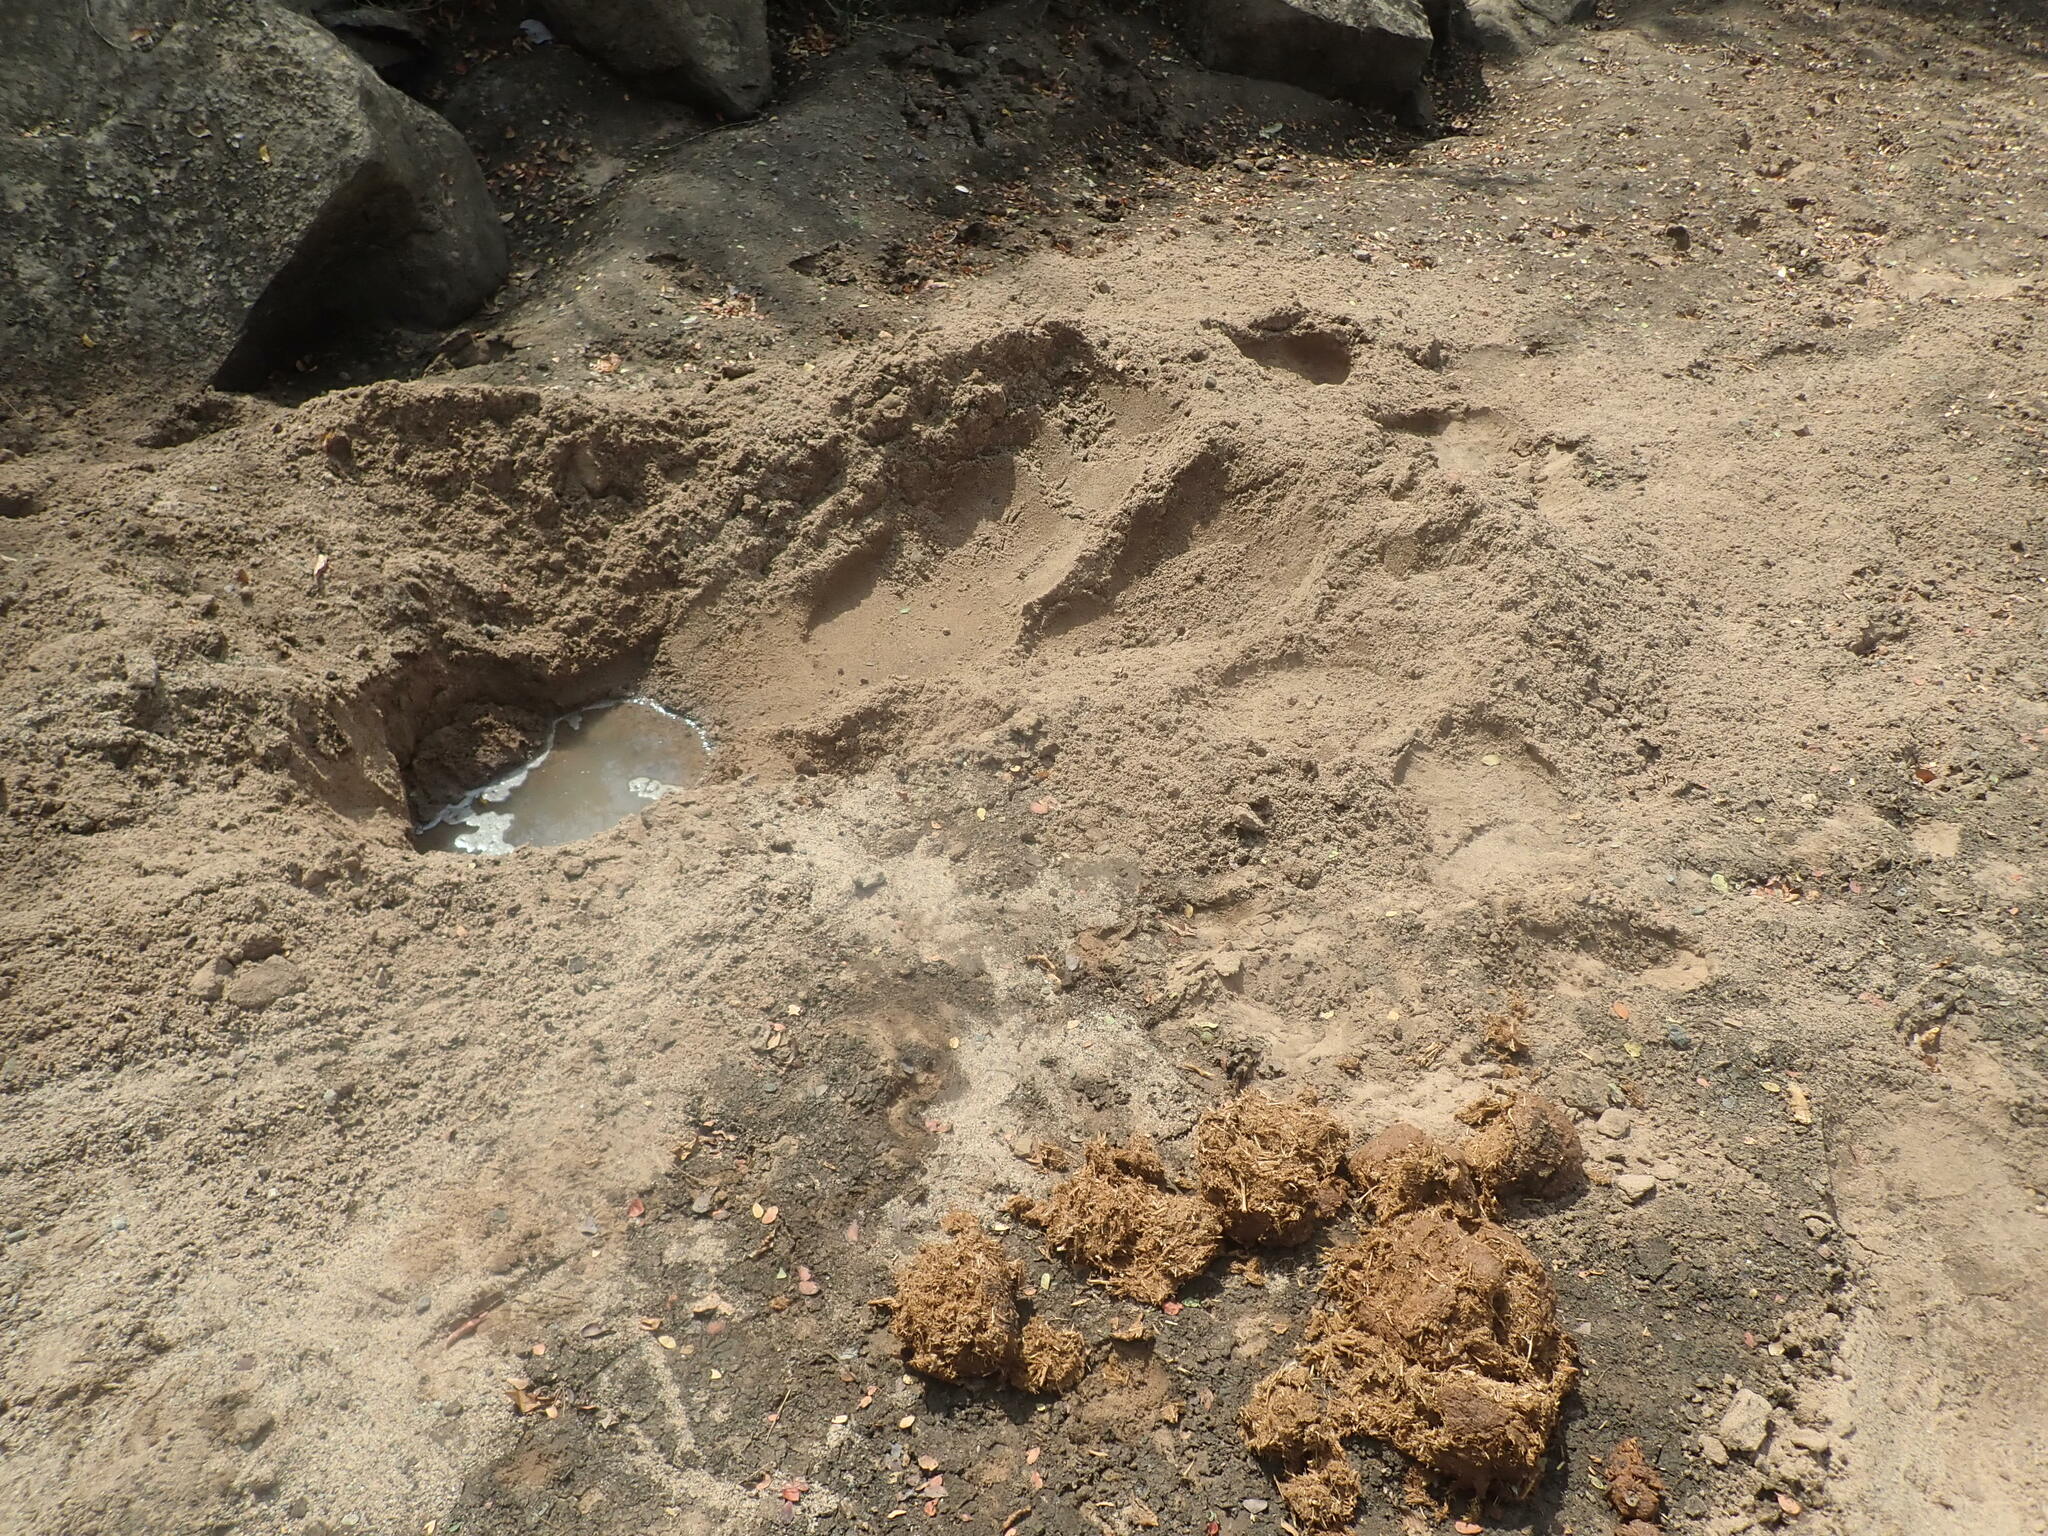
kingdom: Animalia
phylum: Chordata
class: Mammalia
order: Proboscidea
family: Elephantidae
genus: Loxodonta
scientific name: Loxodonta africana
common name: African elephant
